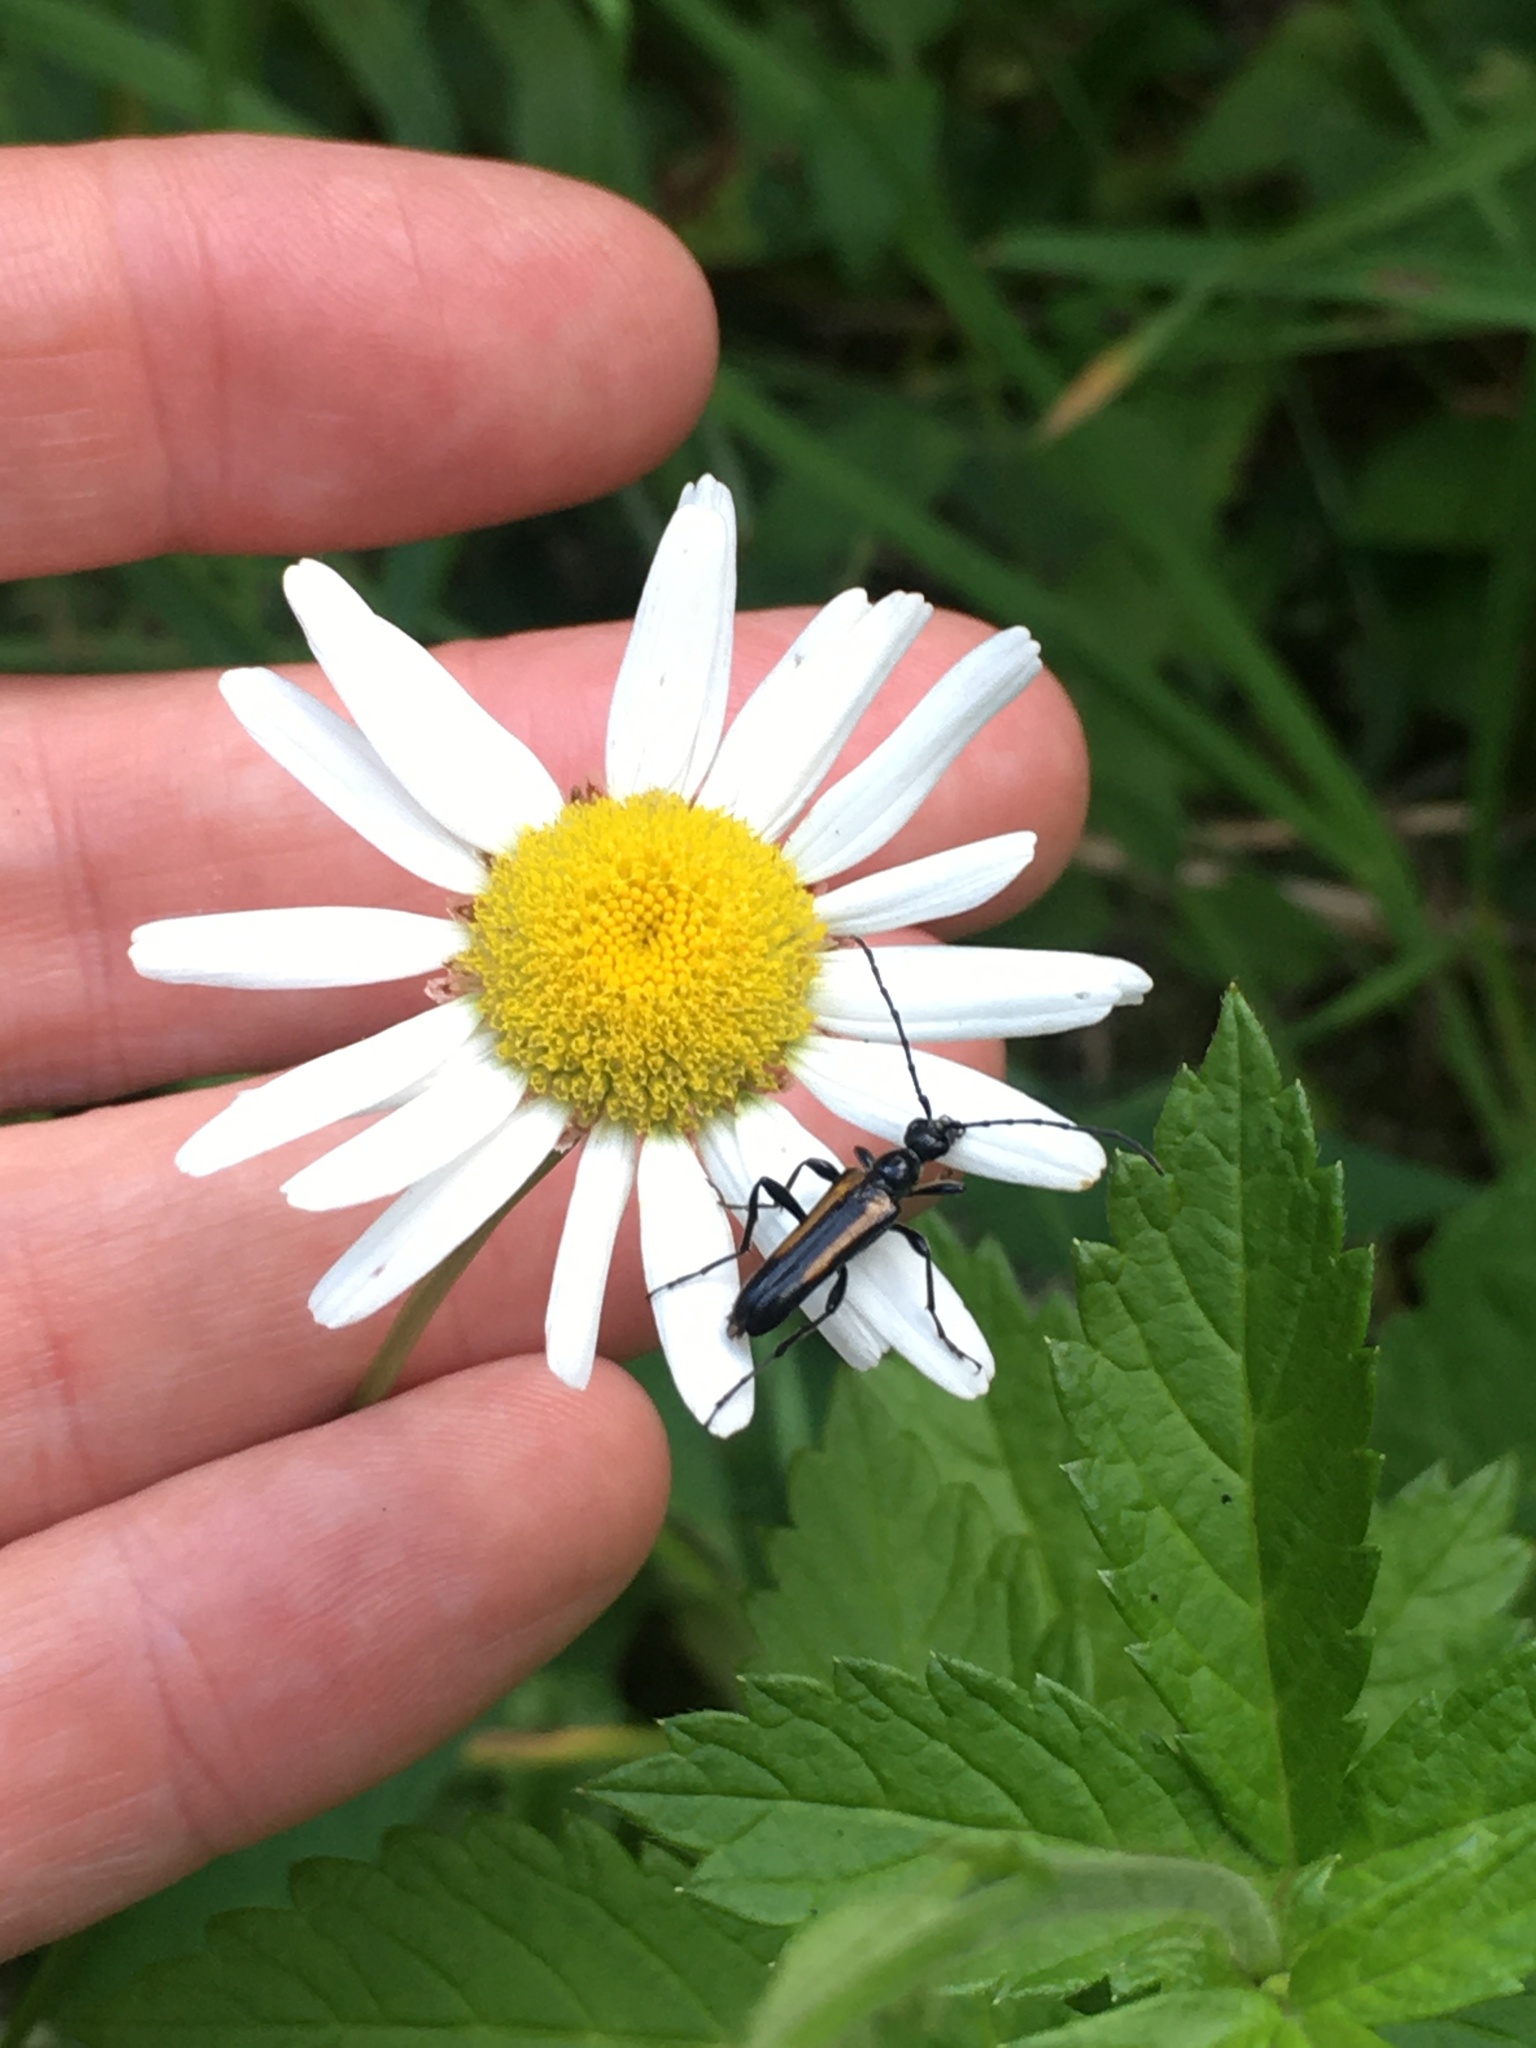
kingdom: Animalia
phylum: Arthropoda
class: Insecta
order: Coleoptera
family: Cerambycidae
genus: Strangalepta
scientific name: Strangalepta abbreviata
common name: Strangalepta flower longhorn beetle
